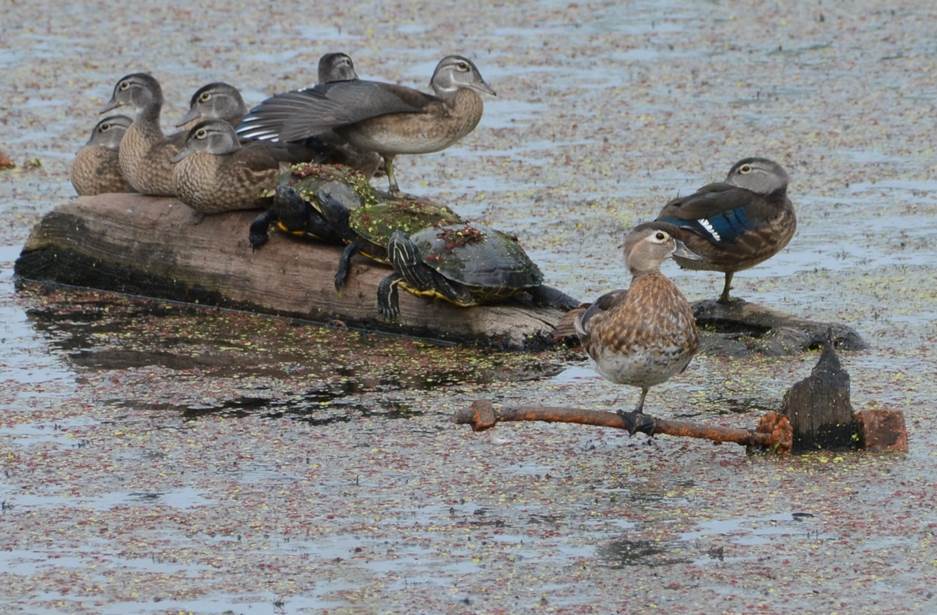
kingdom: Animalia
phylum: Chordata
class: Aves
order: Anseriformes
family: Anatidae
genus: Aix
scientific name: Aix sponsa
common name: Wood duck
